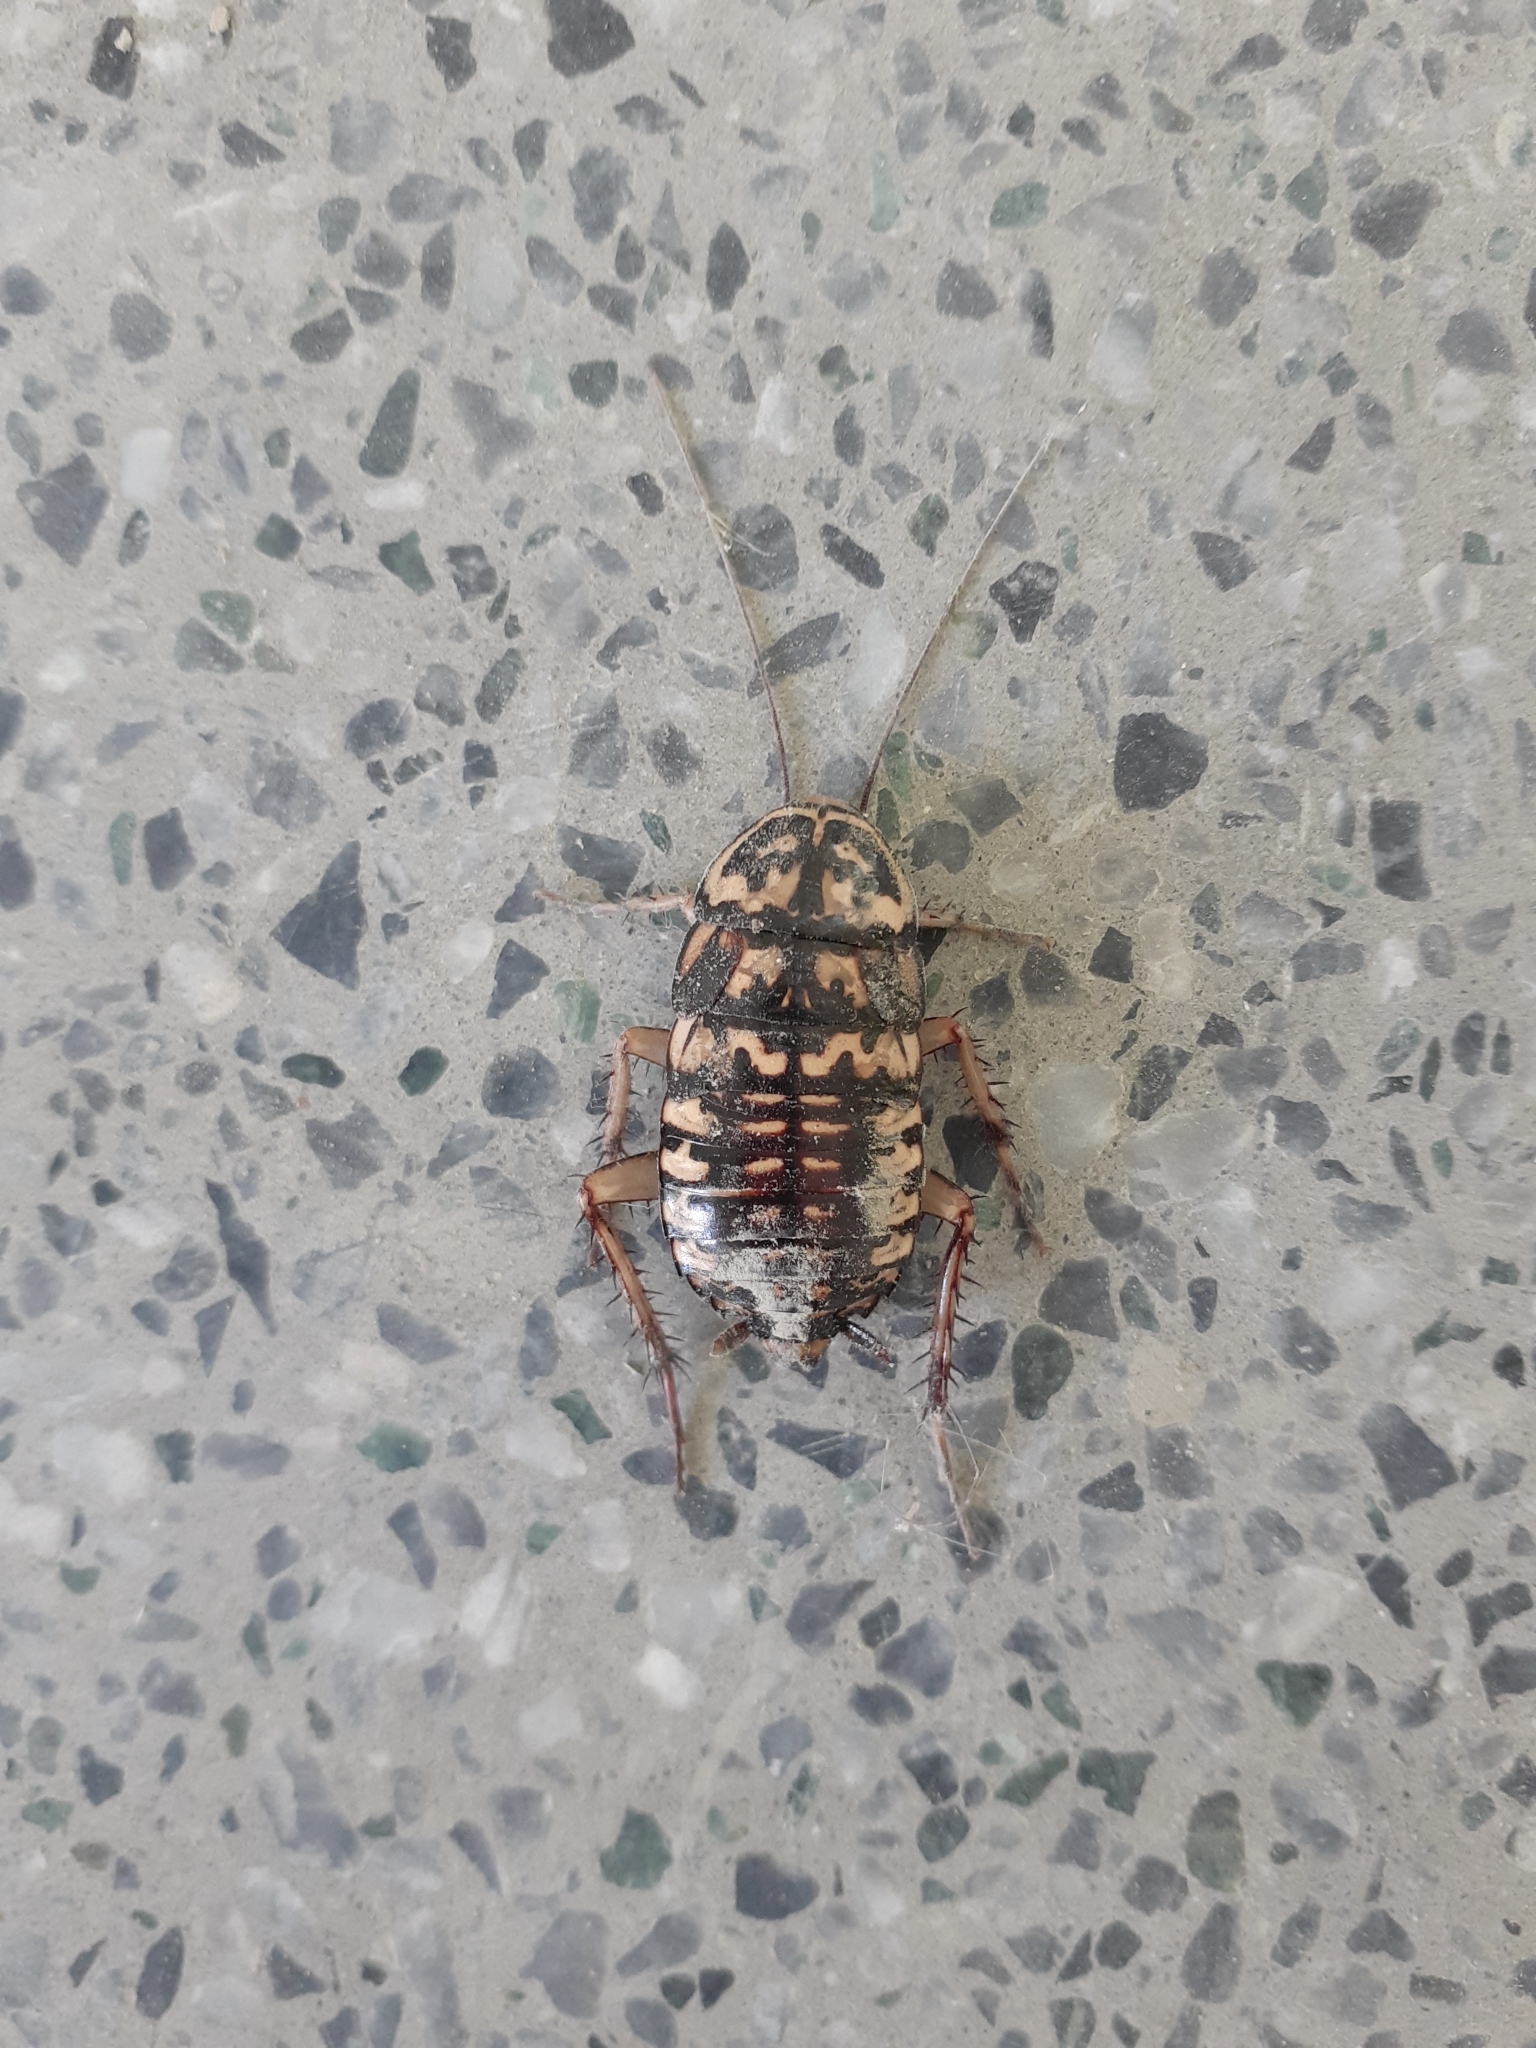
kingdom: Animalia
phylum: Arthropoda
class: Insecta
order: Blattodea
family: Blattidae
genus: Neostylopyga
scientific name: Neostylopyga rhombifolia
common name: Harlequin cockroach
